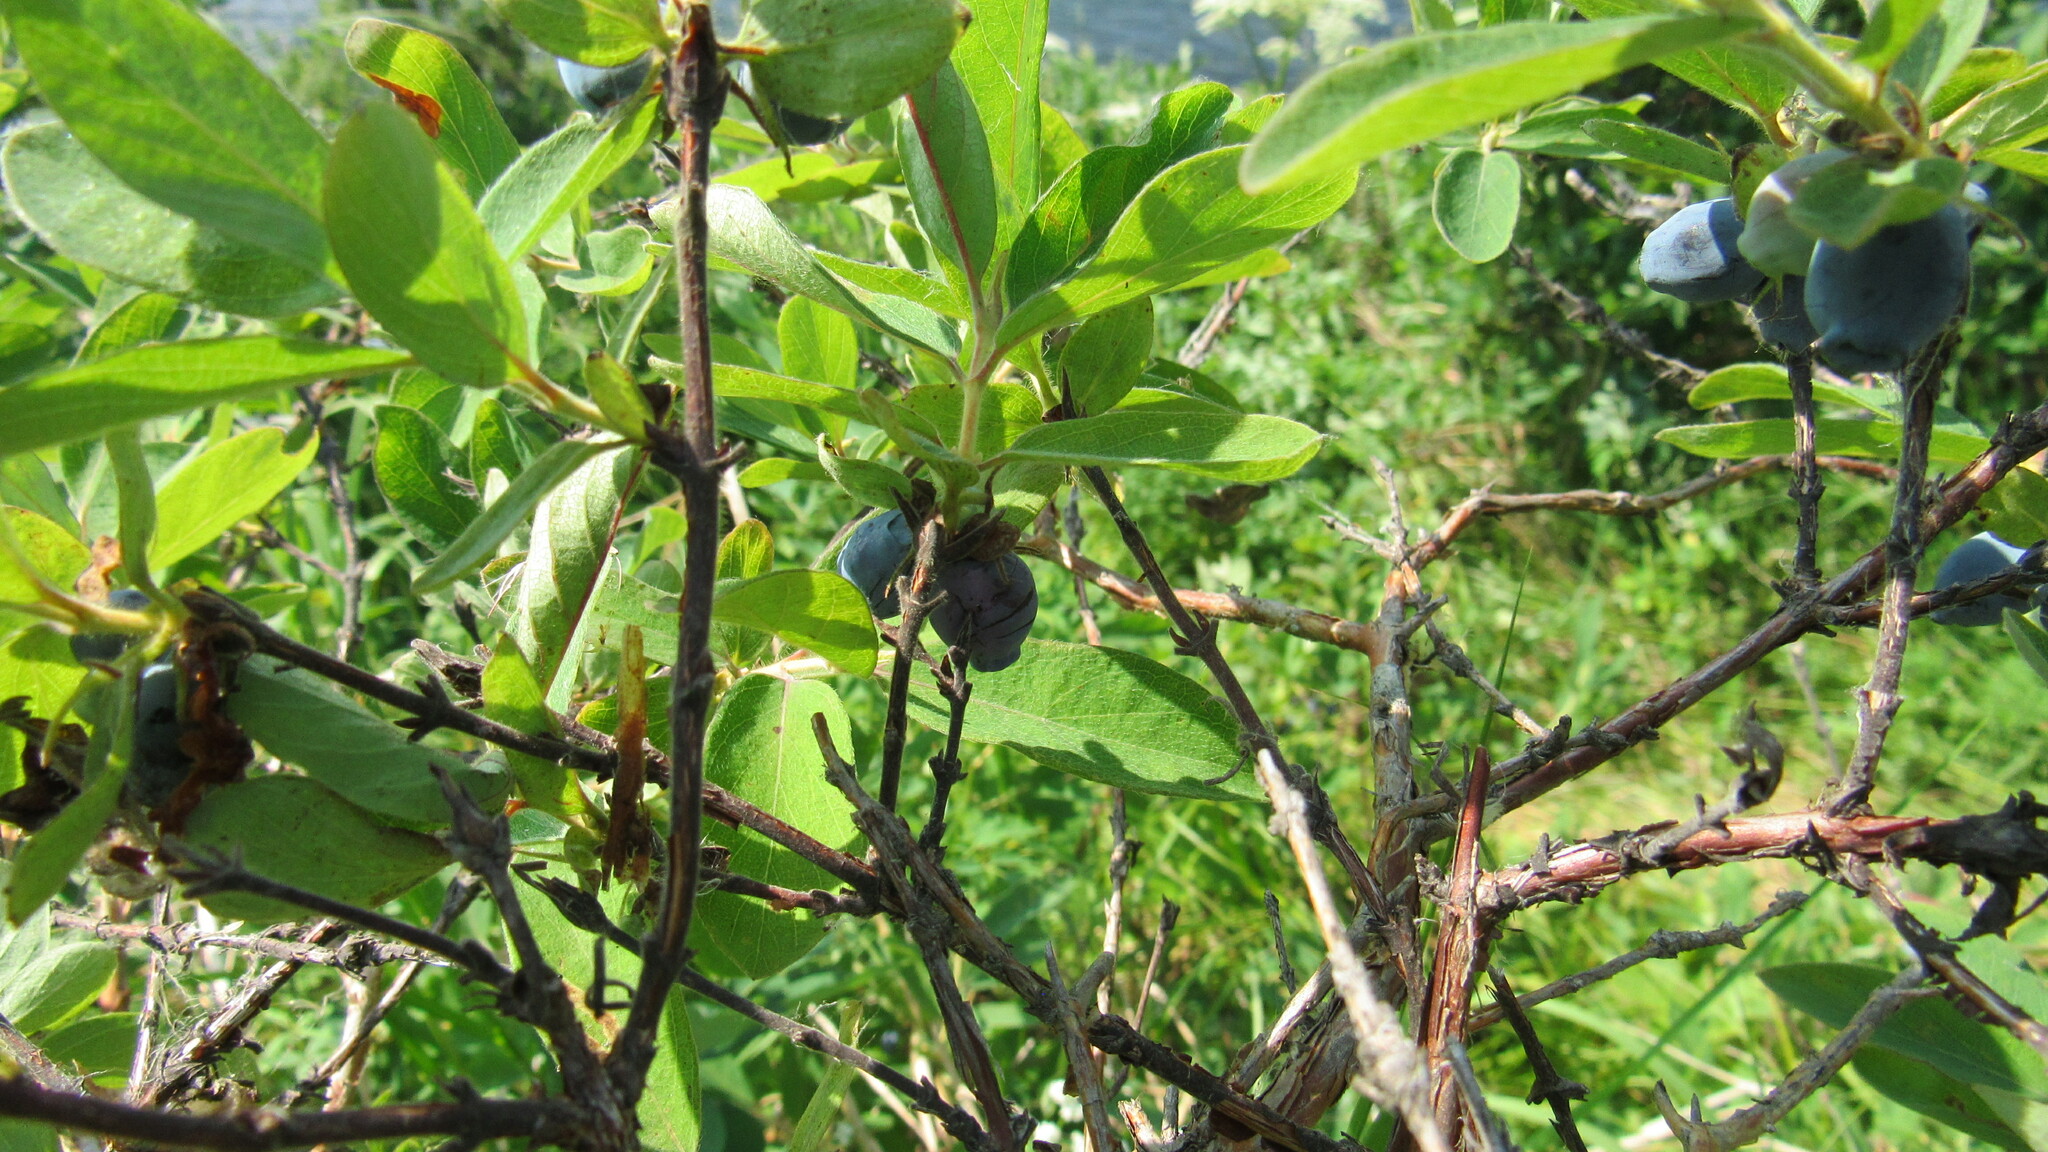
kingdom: Plantae
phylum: Tracheophyta
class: Magnoliopsida
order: Dipsacales
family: Caprifoliaceae
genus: Lonicera
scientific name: Lonicera caerulea
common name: Blue honeysuckle
